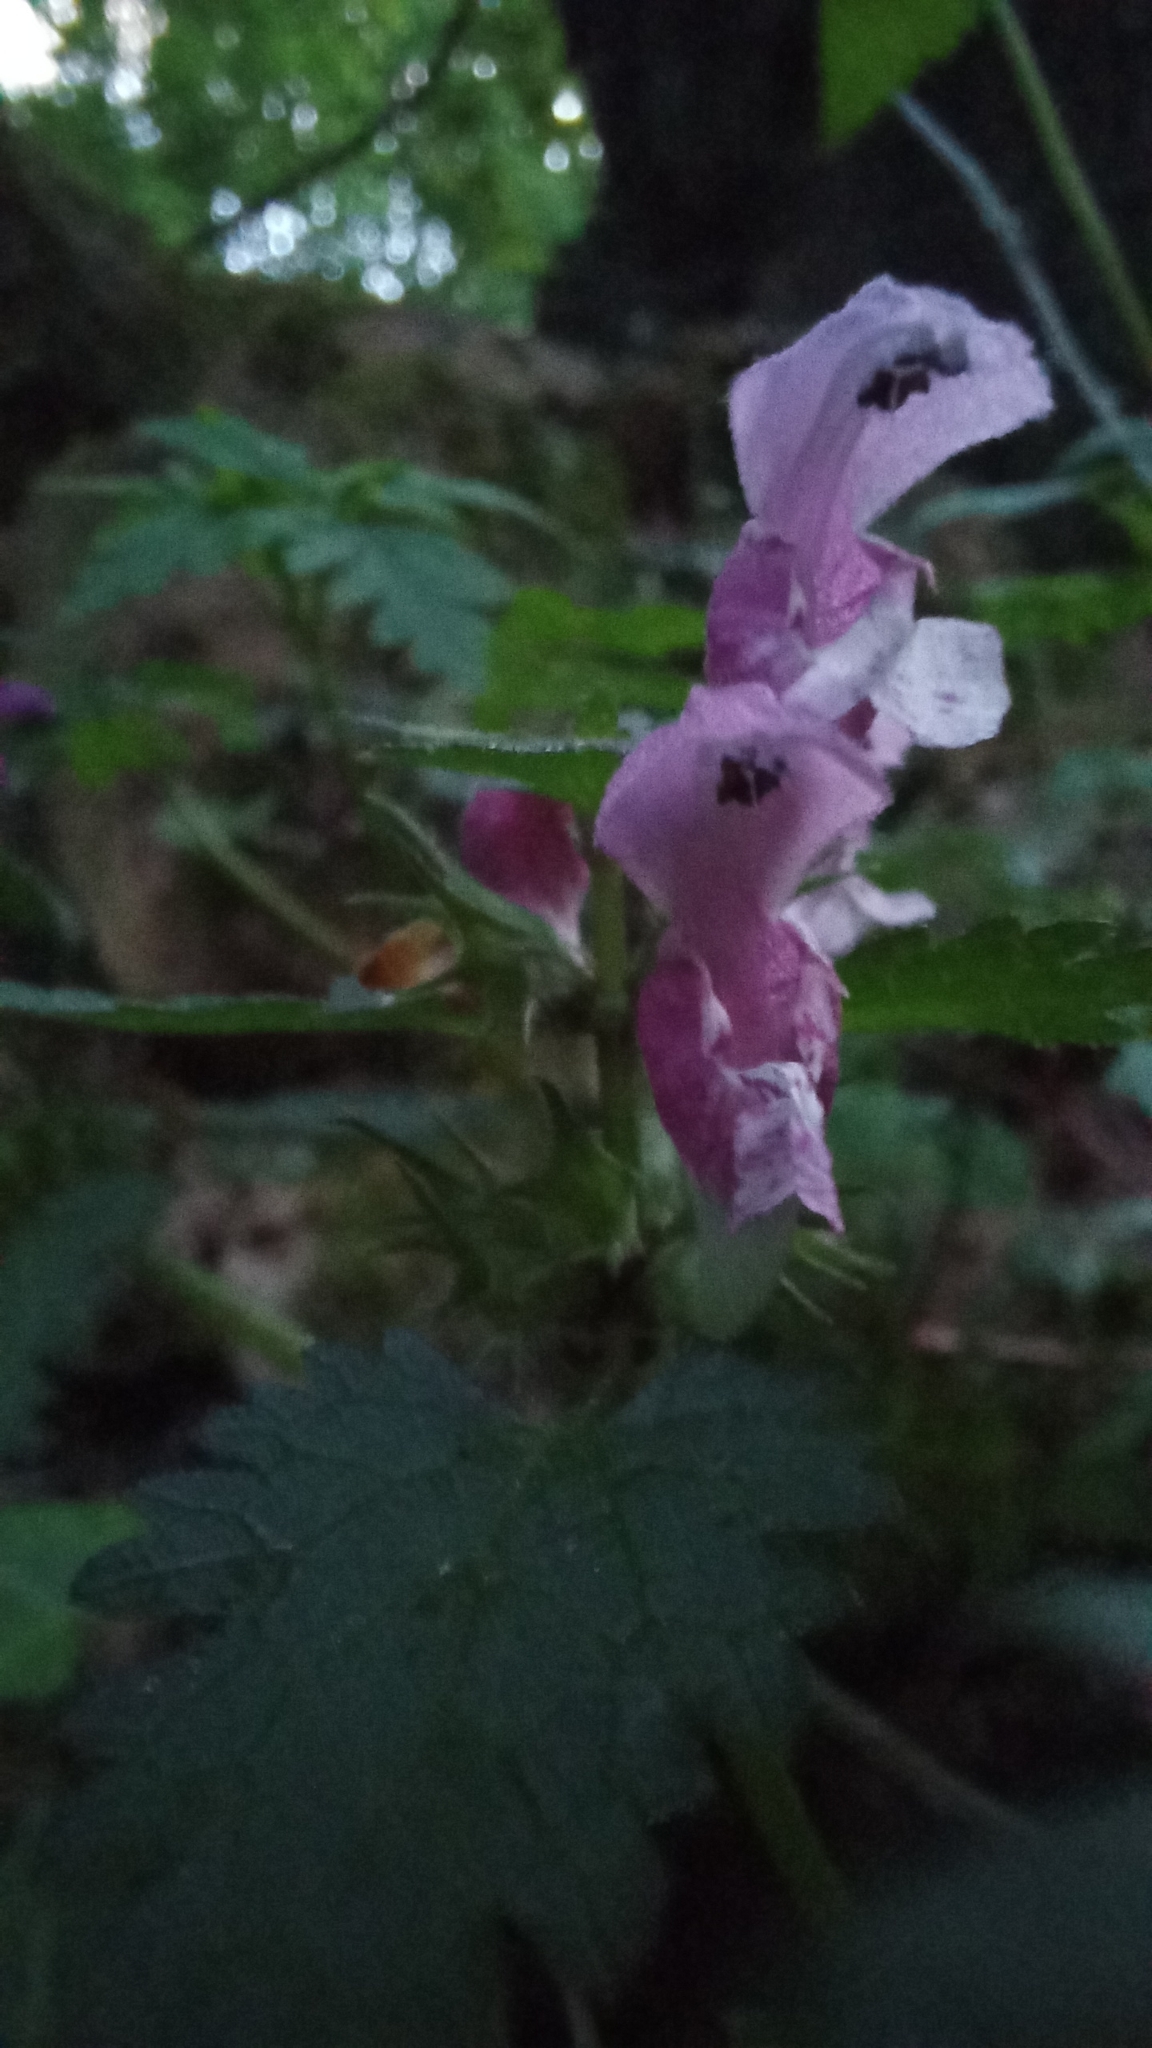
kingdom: Plantae
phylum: Tracheophyta
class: Magnoliopsida
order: Lamiales
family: Lamiaceae
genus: Lamium
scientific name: Lamium maculatum
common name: Spotted dead-nettle
